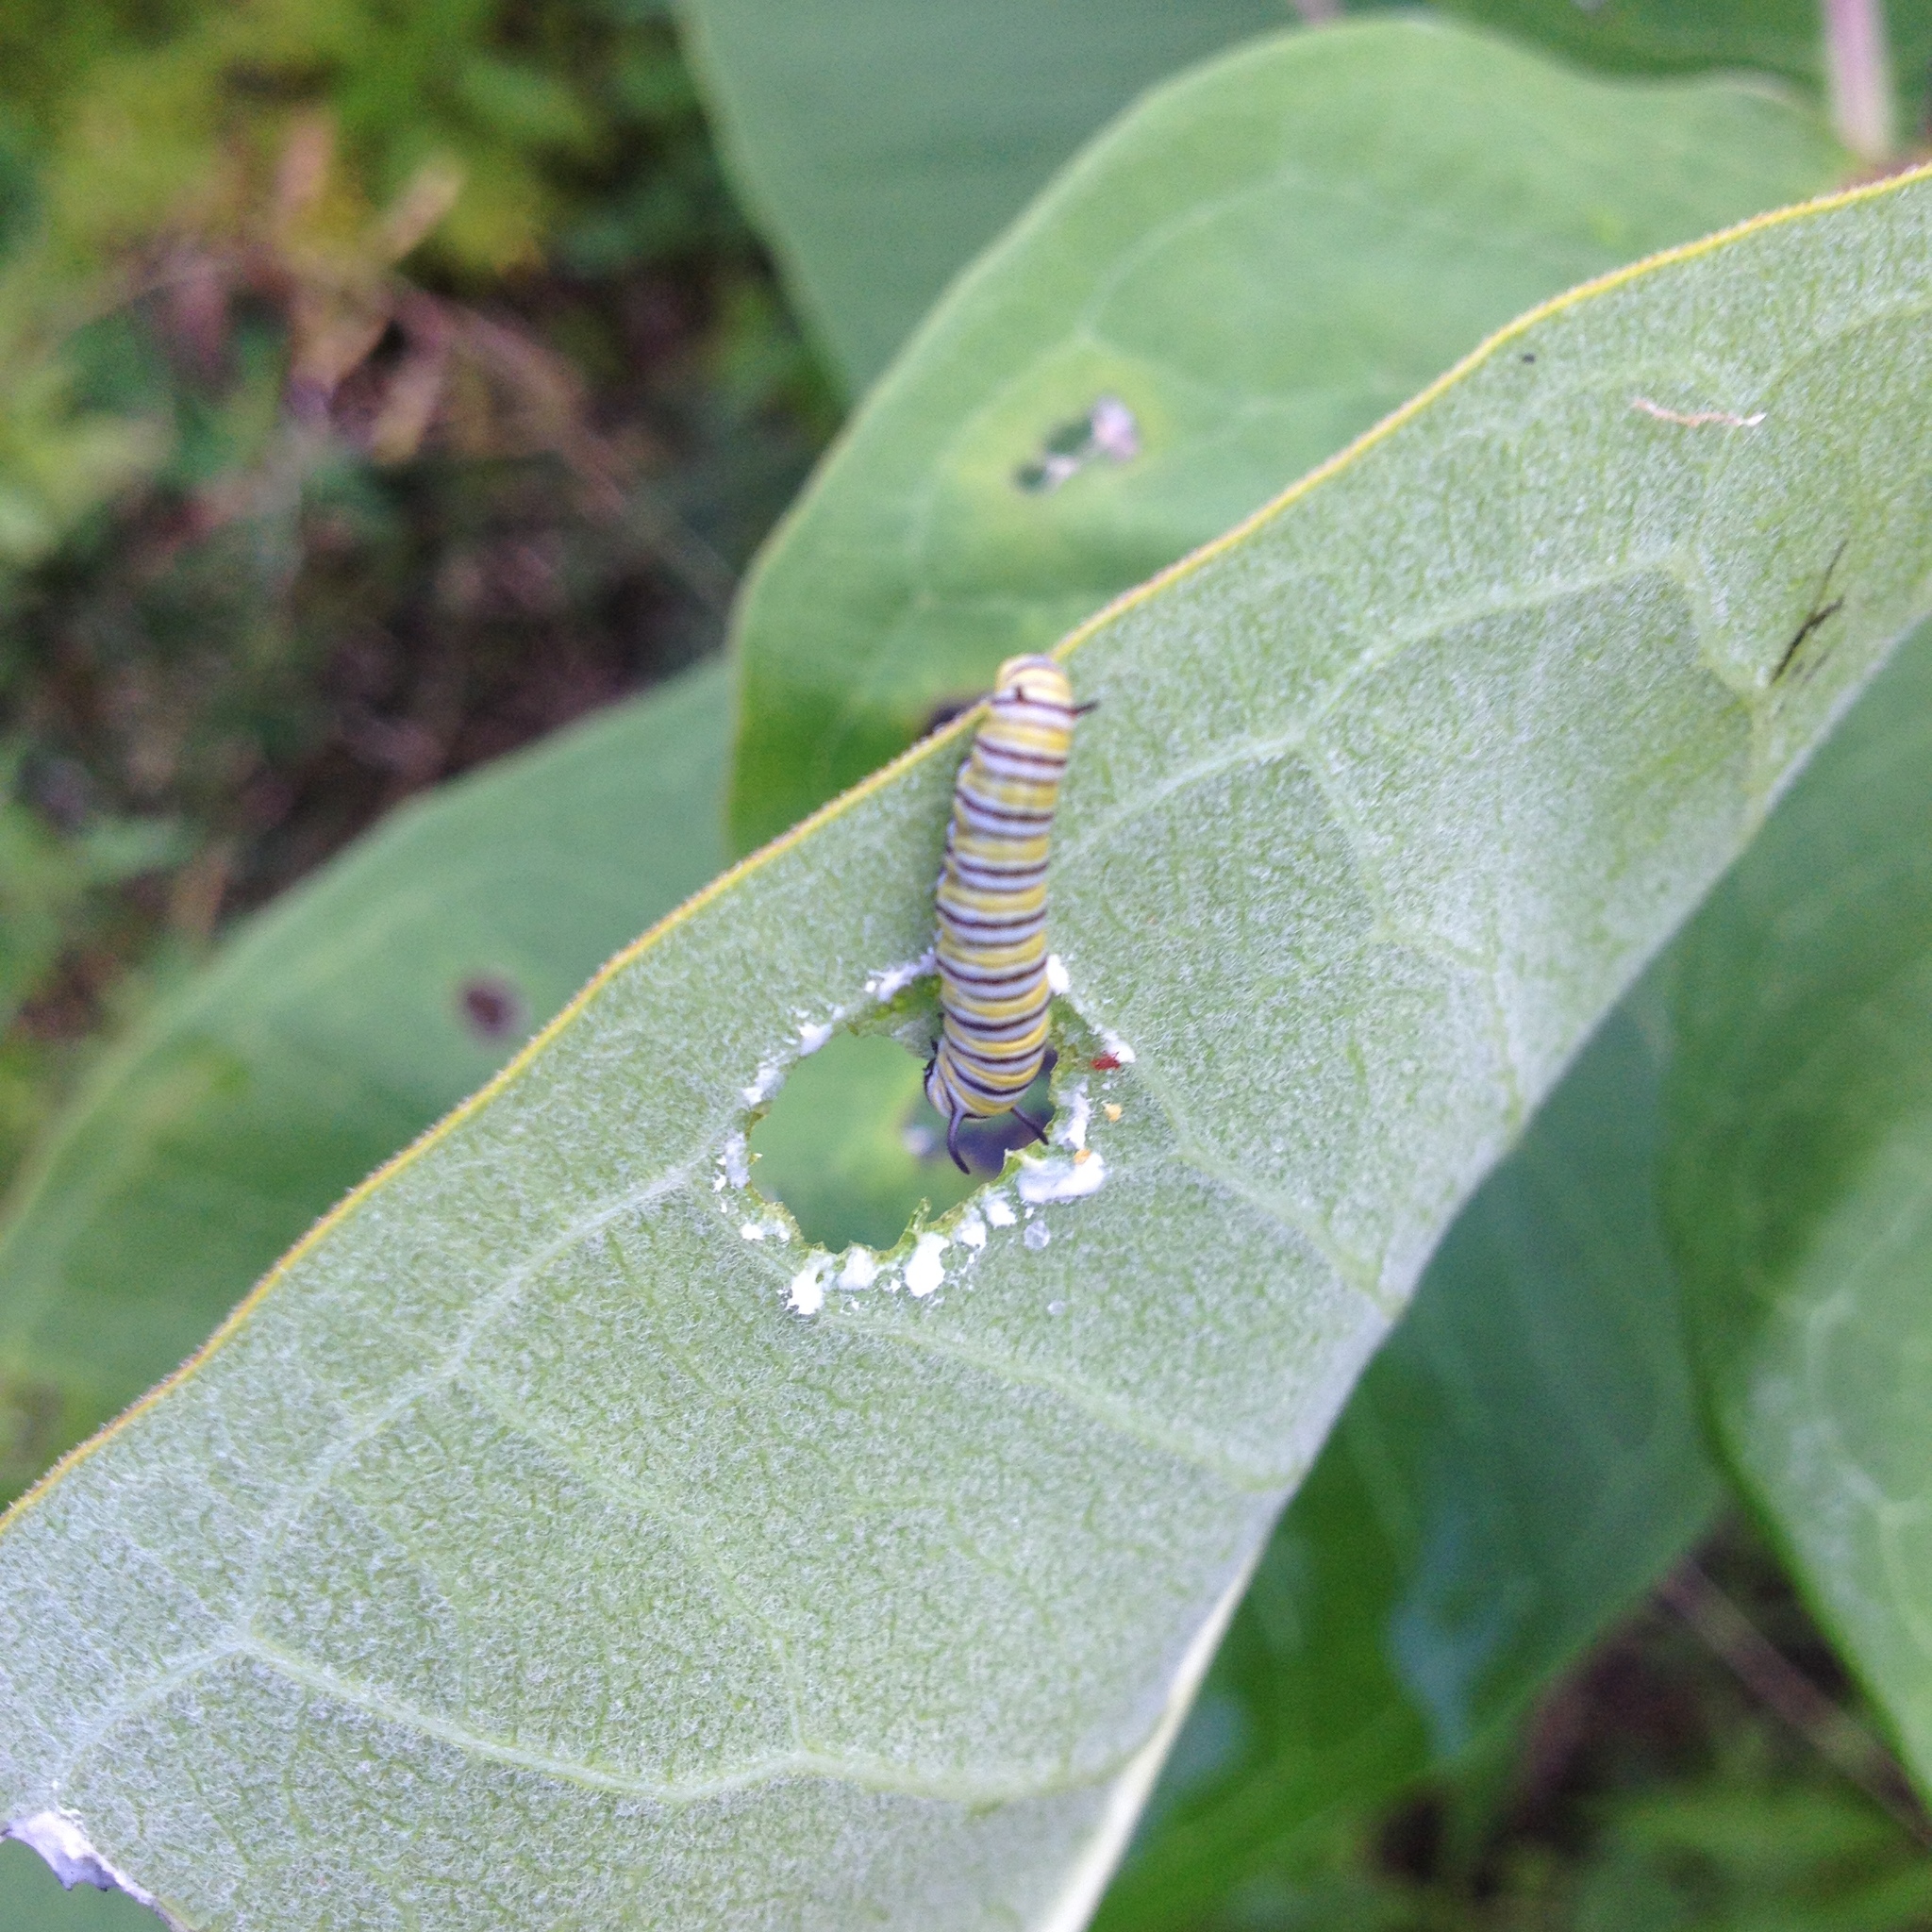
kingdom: Animalia
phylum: Arthropoda
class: Insecta
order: Lepidoptera
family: Nymphalidae
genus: Danaus
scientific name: Danaus plexippus
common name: Monarch
